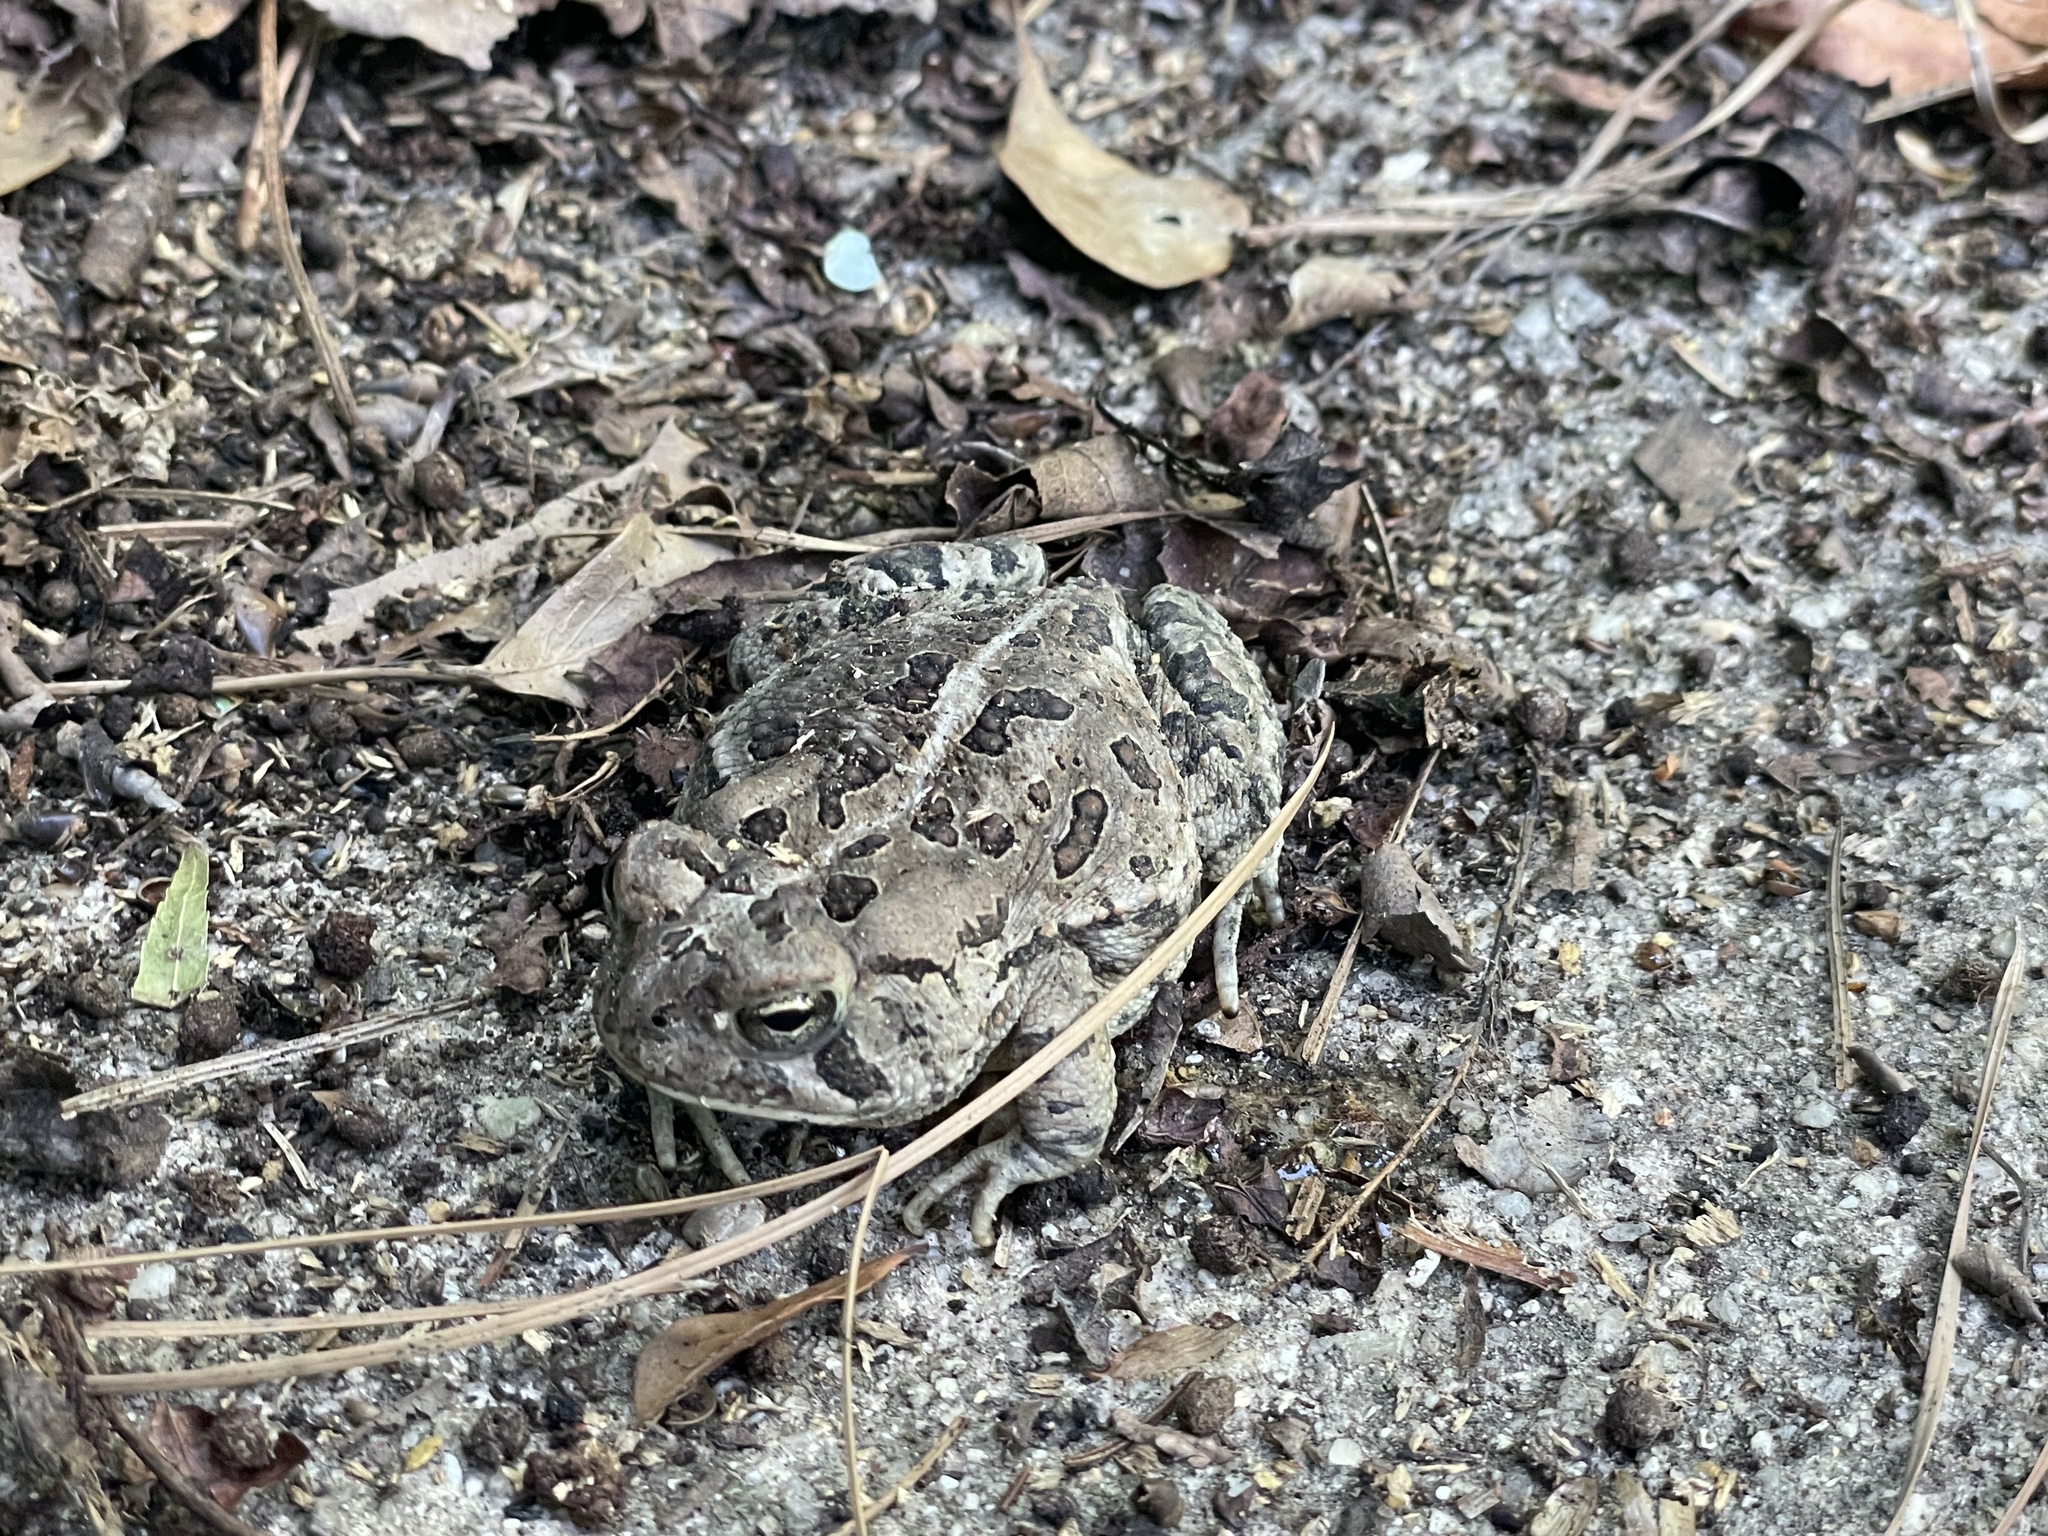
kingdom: Animalia
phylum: Chordata
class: Amphibia
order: Anura
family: Bufonidae
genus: Anaxyrus
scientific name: Anaxyrus fowleri
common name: Fowler's toad
